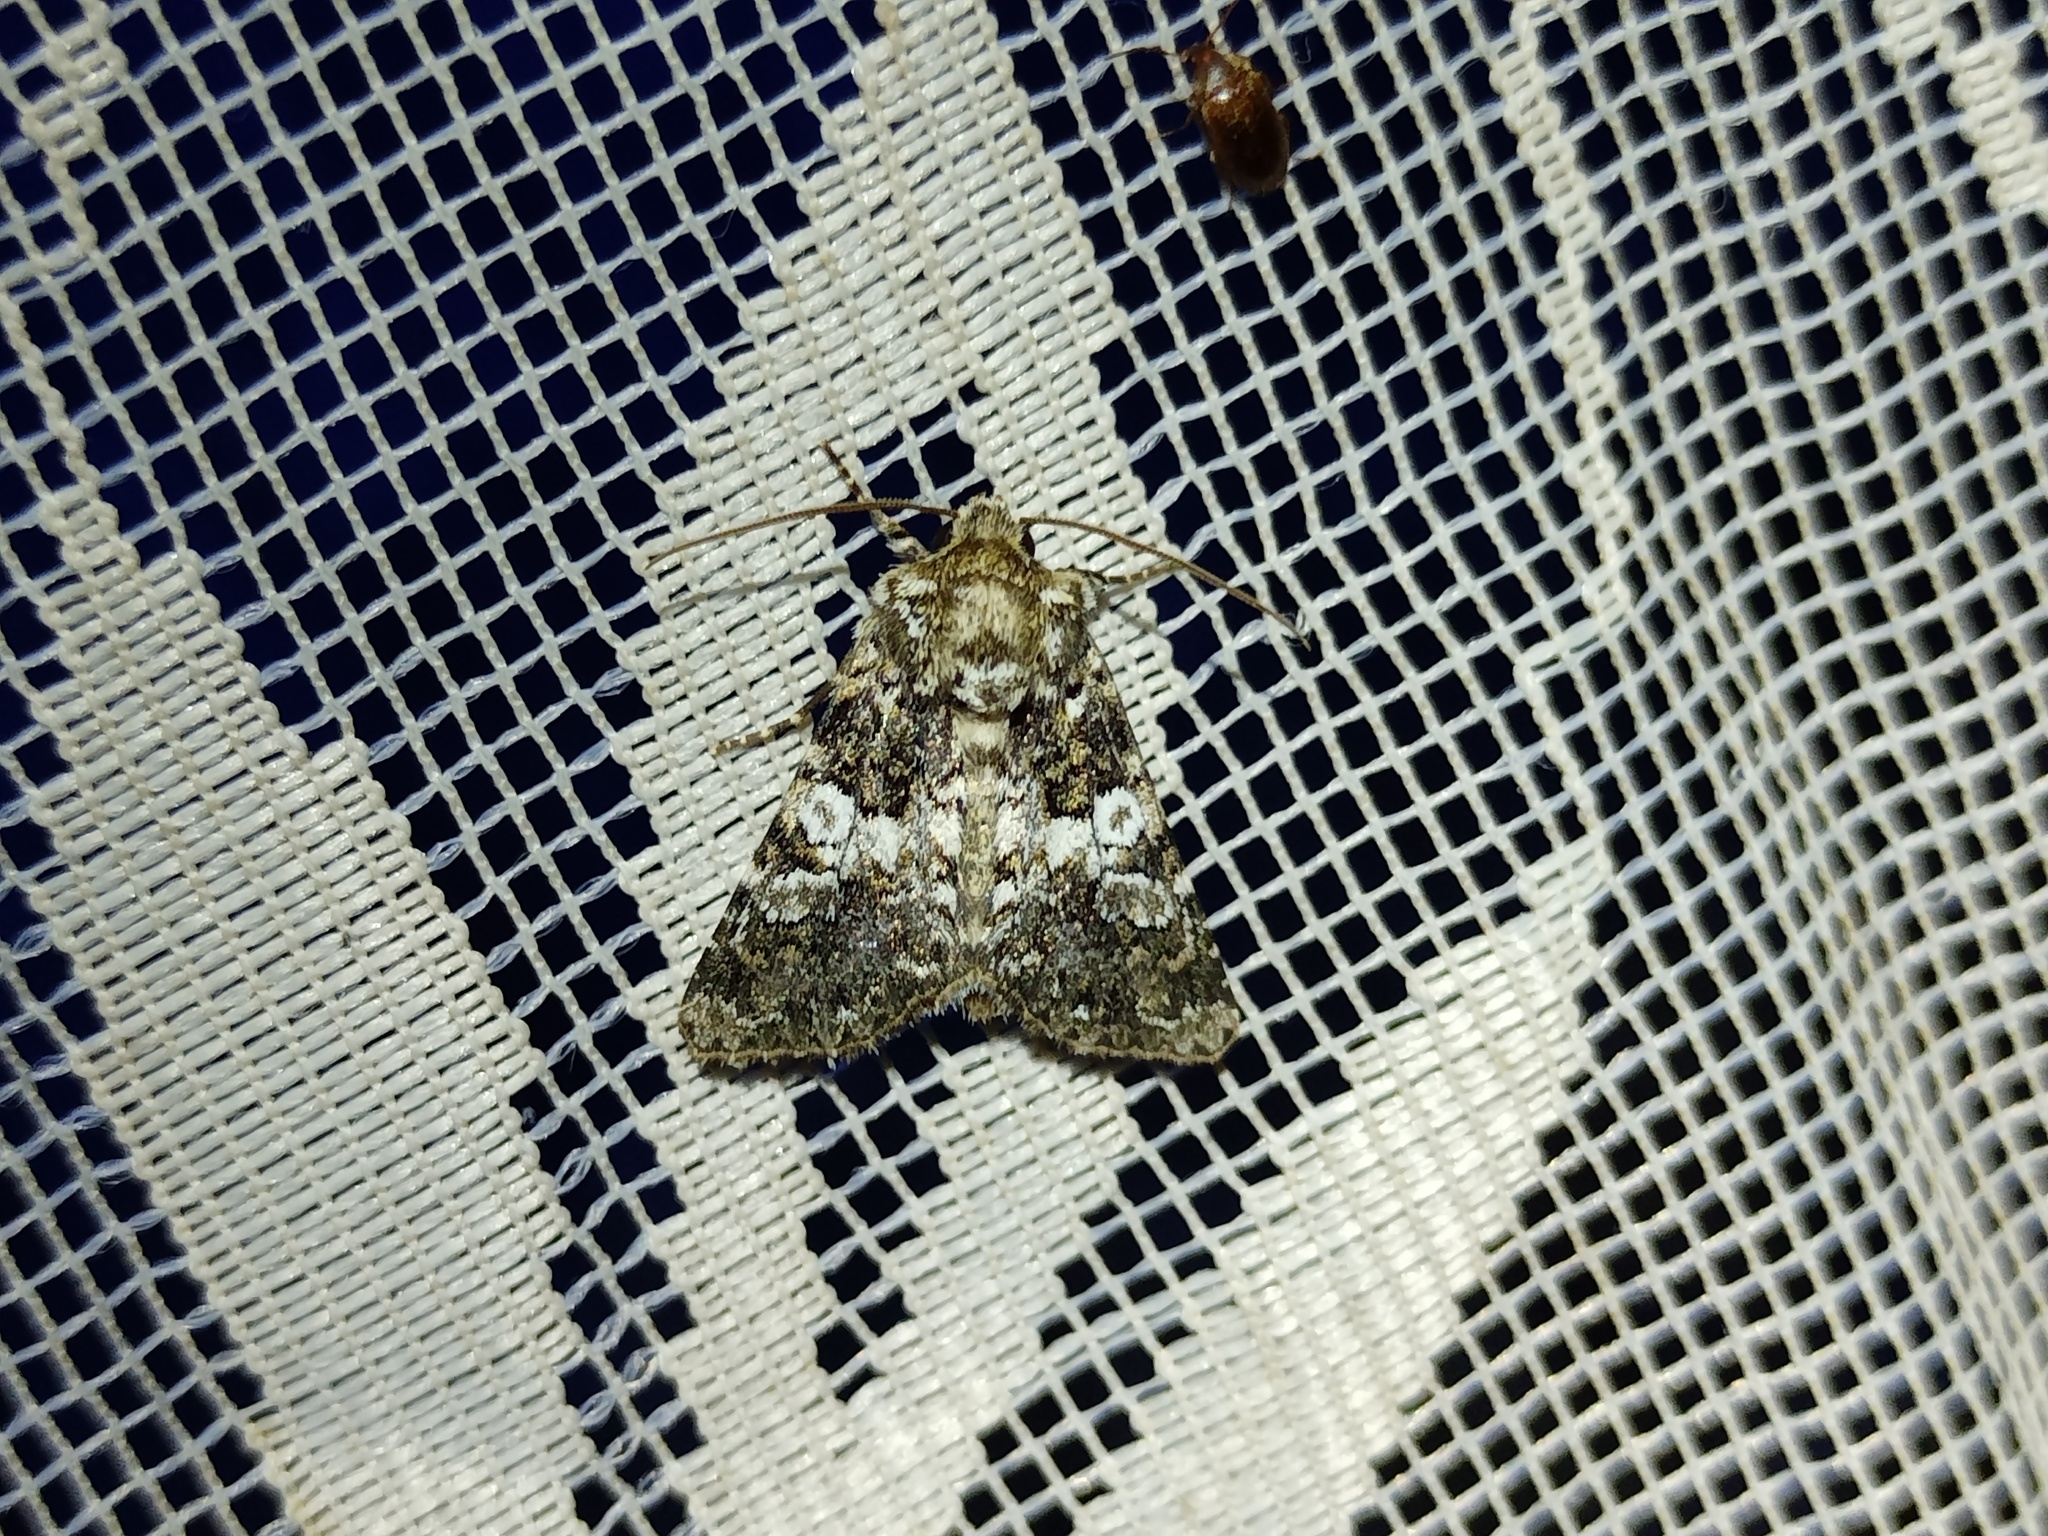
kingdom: Animalia
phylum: Arthropoda
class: Insecta
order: Lepidoptera
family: Noctuidae
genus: Hadena
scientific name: Hadena compta
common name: Varied coronet
